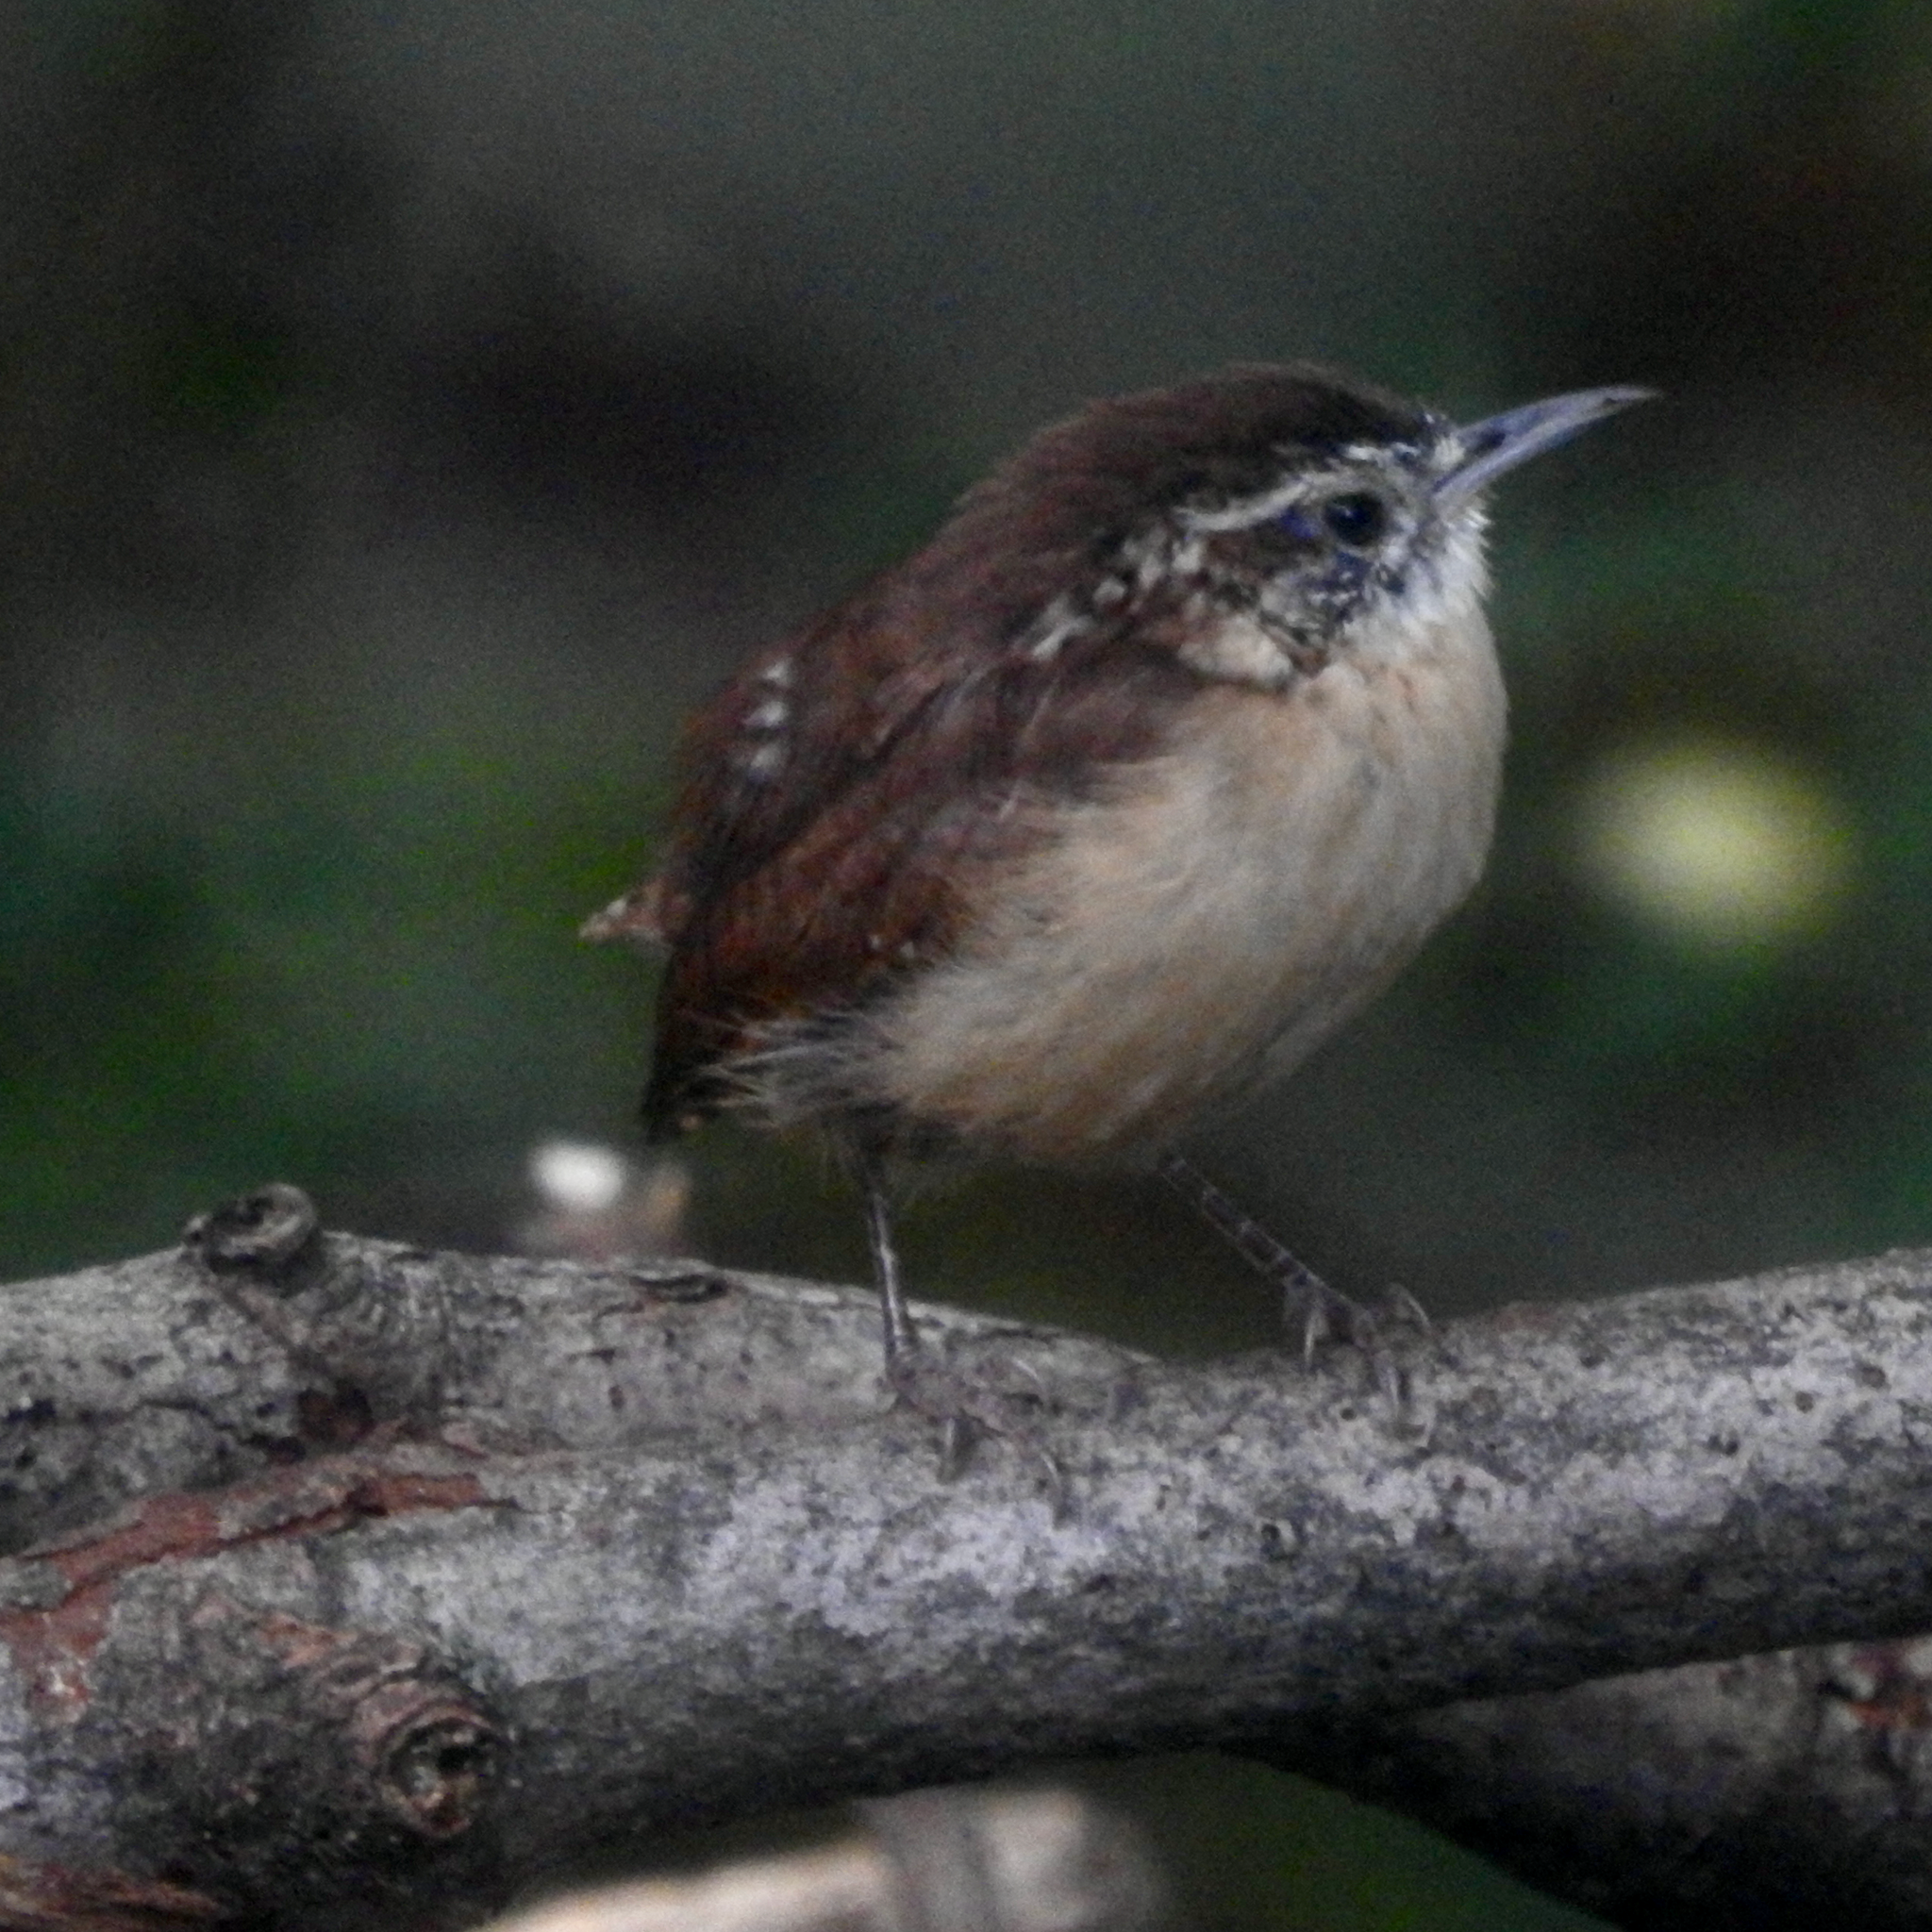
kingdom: Animalia
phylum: Chordata
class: Aves
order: Passeriformes
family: Troglodytidae
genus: Thryothorus
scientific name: Thryothorus ludovicianus
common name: Carolina wren
